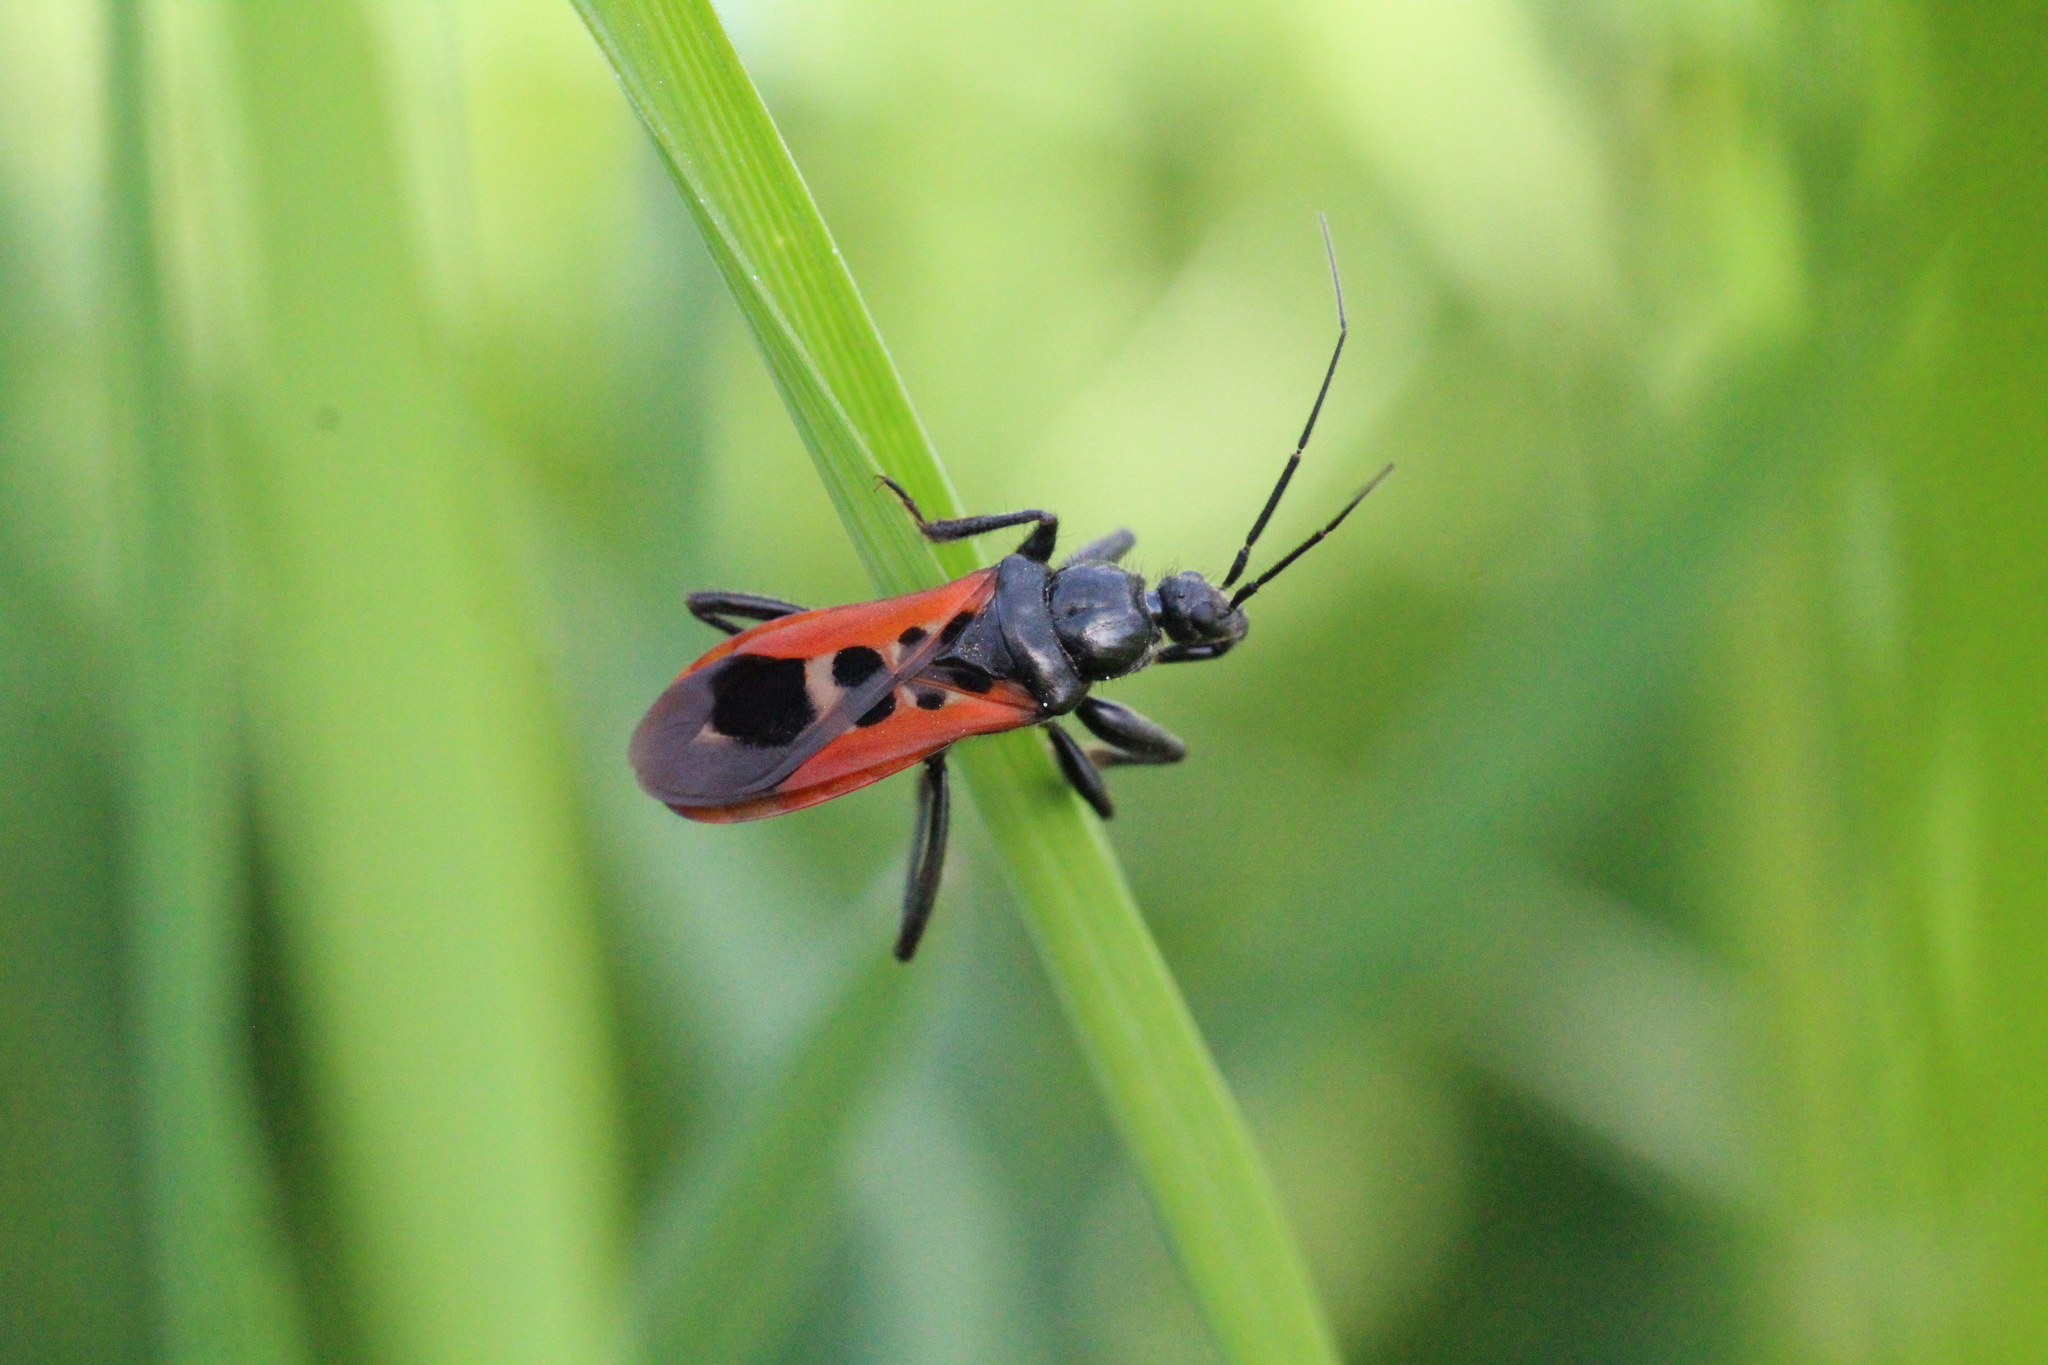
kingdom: Animalia
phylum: Arthropoda
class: Insecta
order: Hemiptera
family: Reduviidae
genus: Peirates
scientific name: Peirates stridulus
